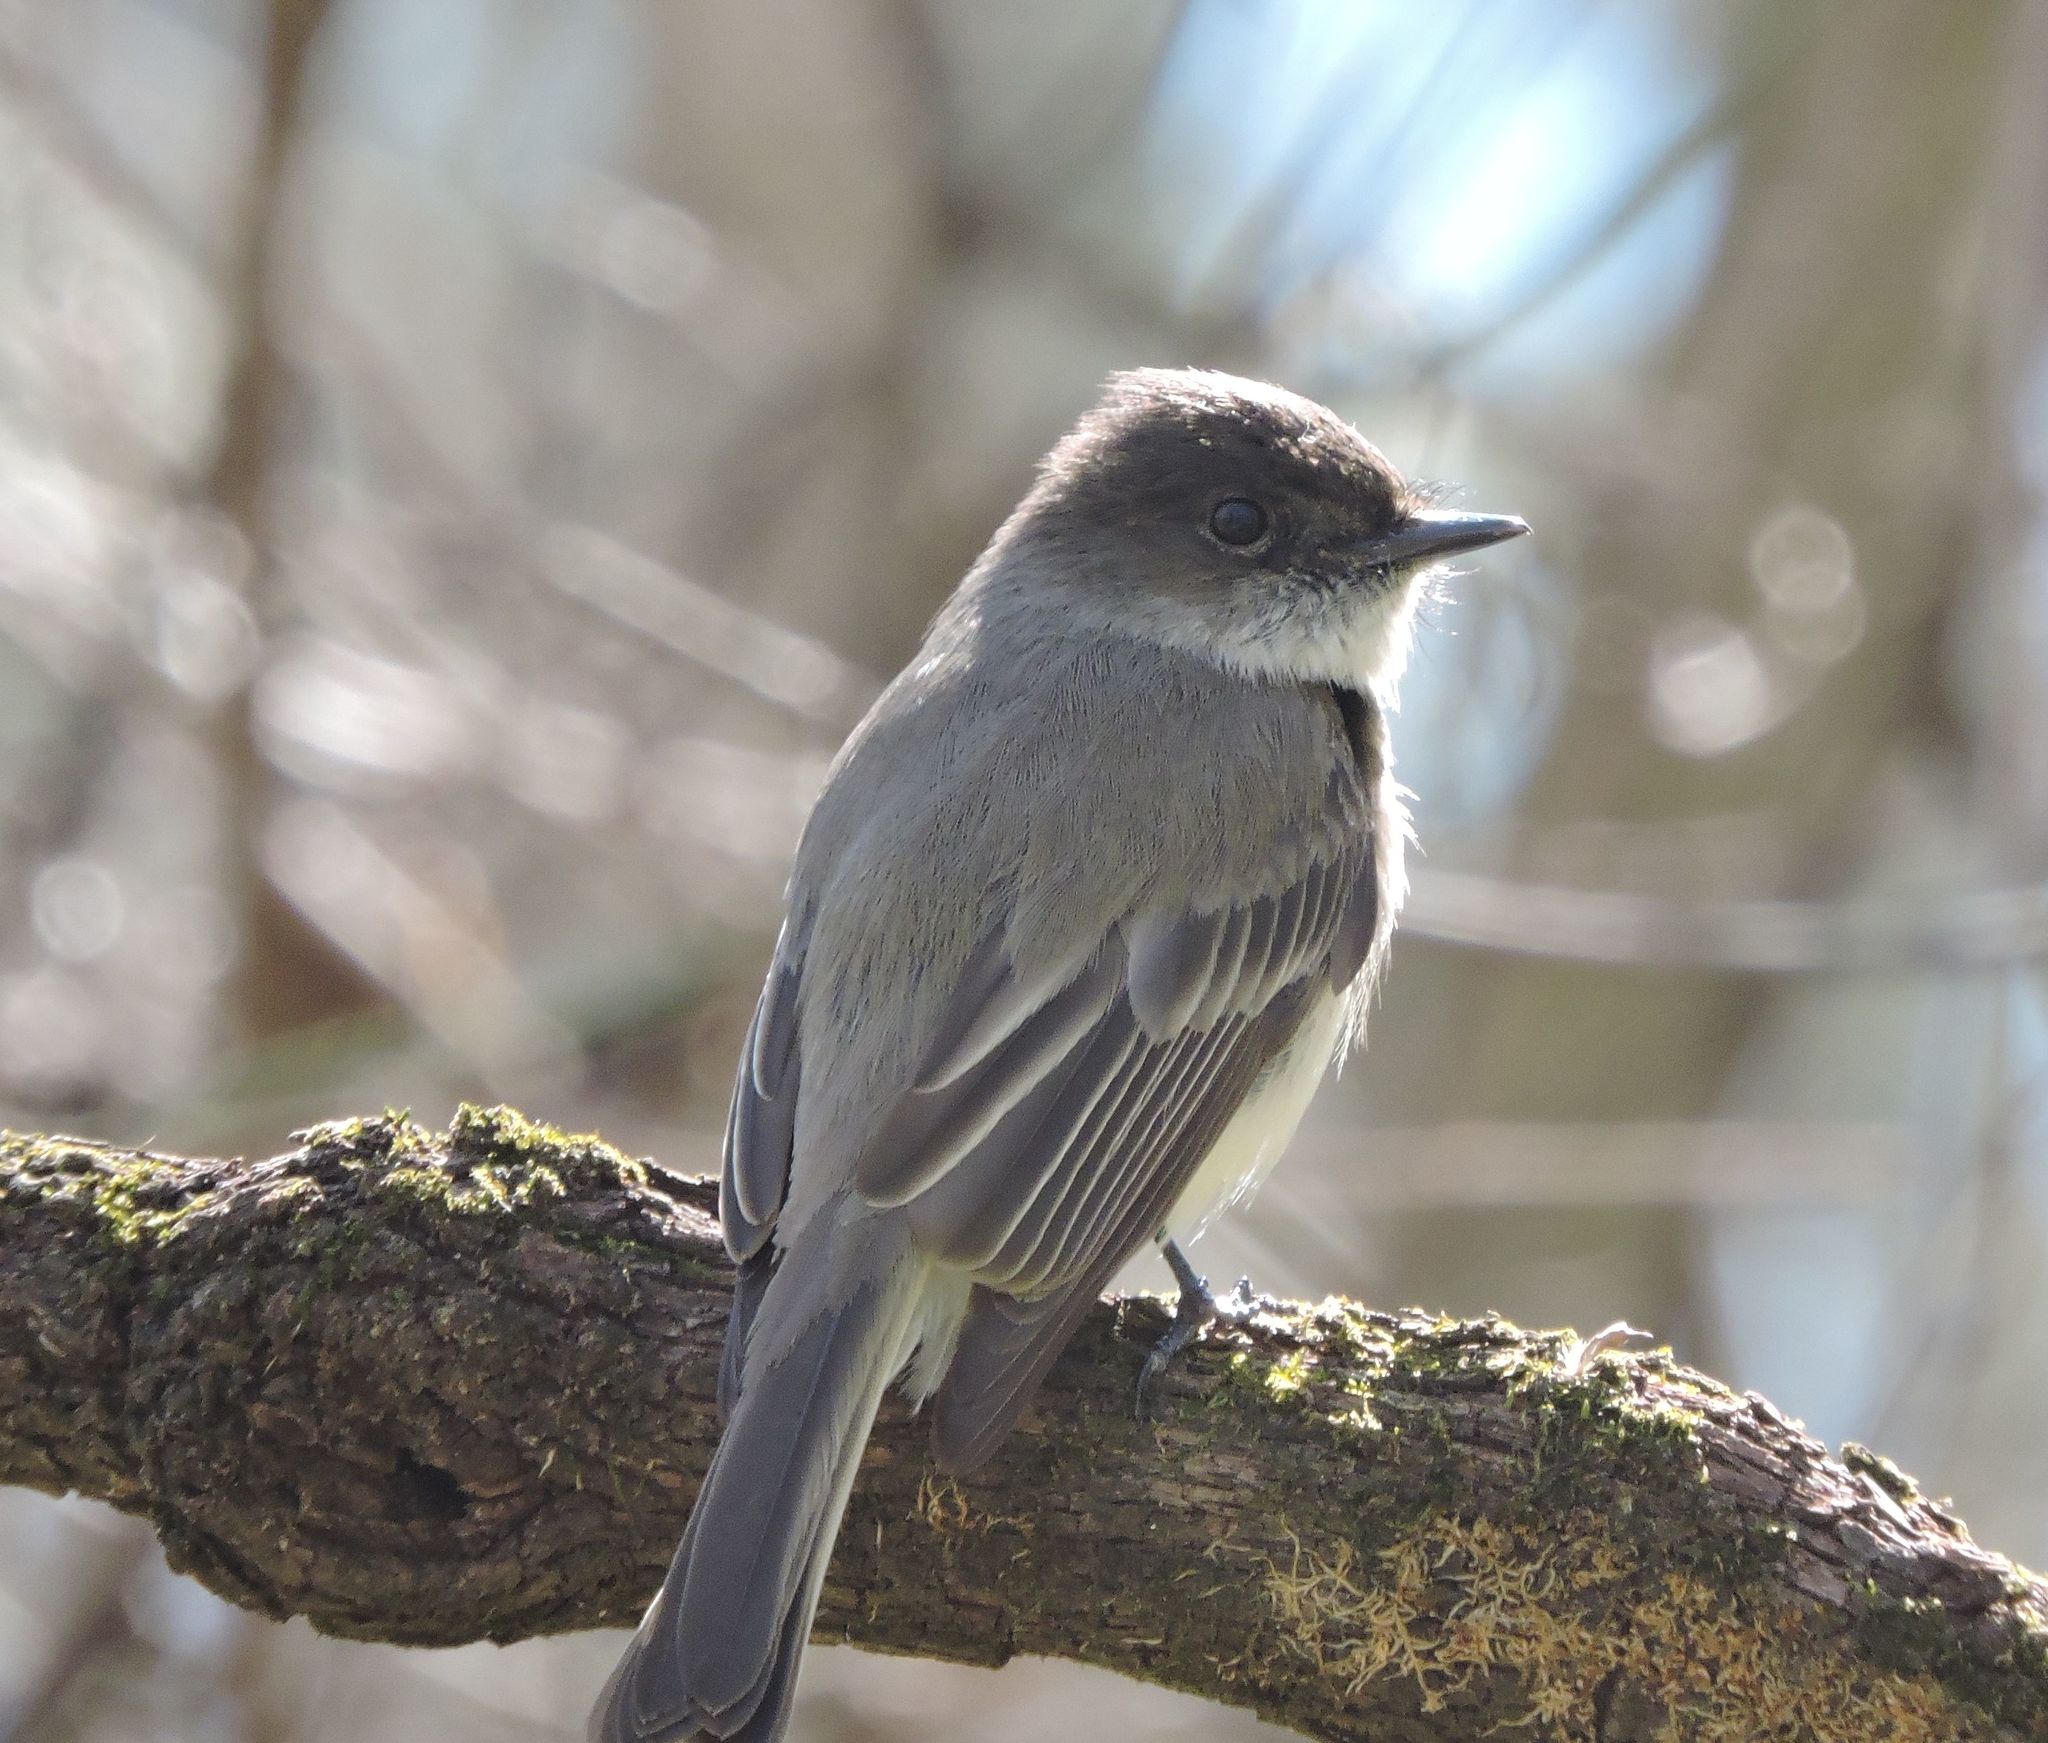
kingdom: Animalia
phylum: Chordata
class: Aves
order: Passeriformes
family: Tyrannidae
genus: Sayornis
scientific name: Sayornis phoebe
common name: Eastern phoebe
